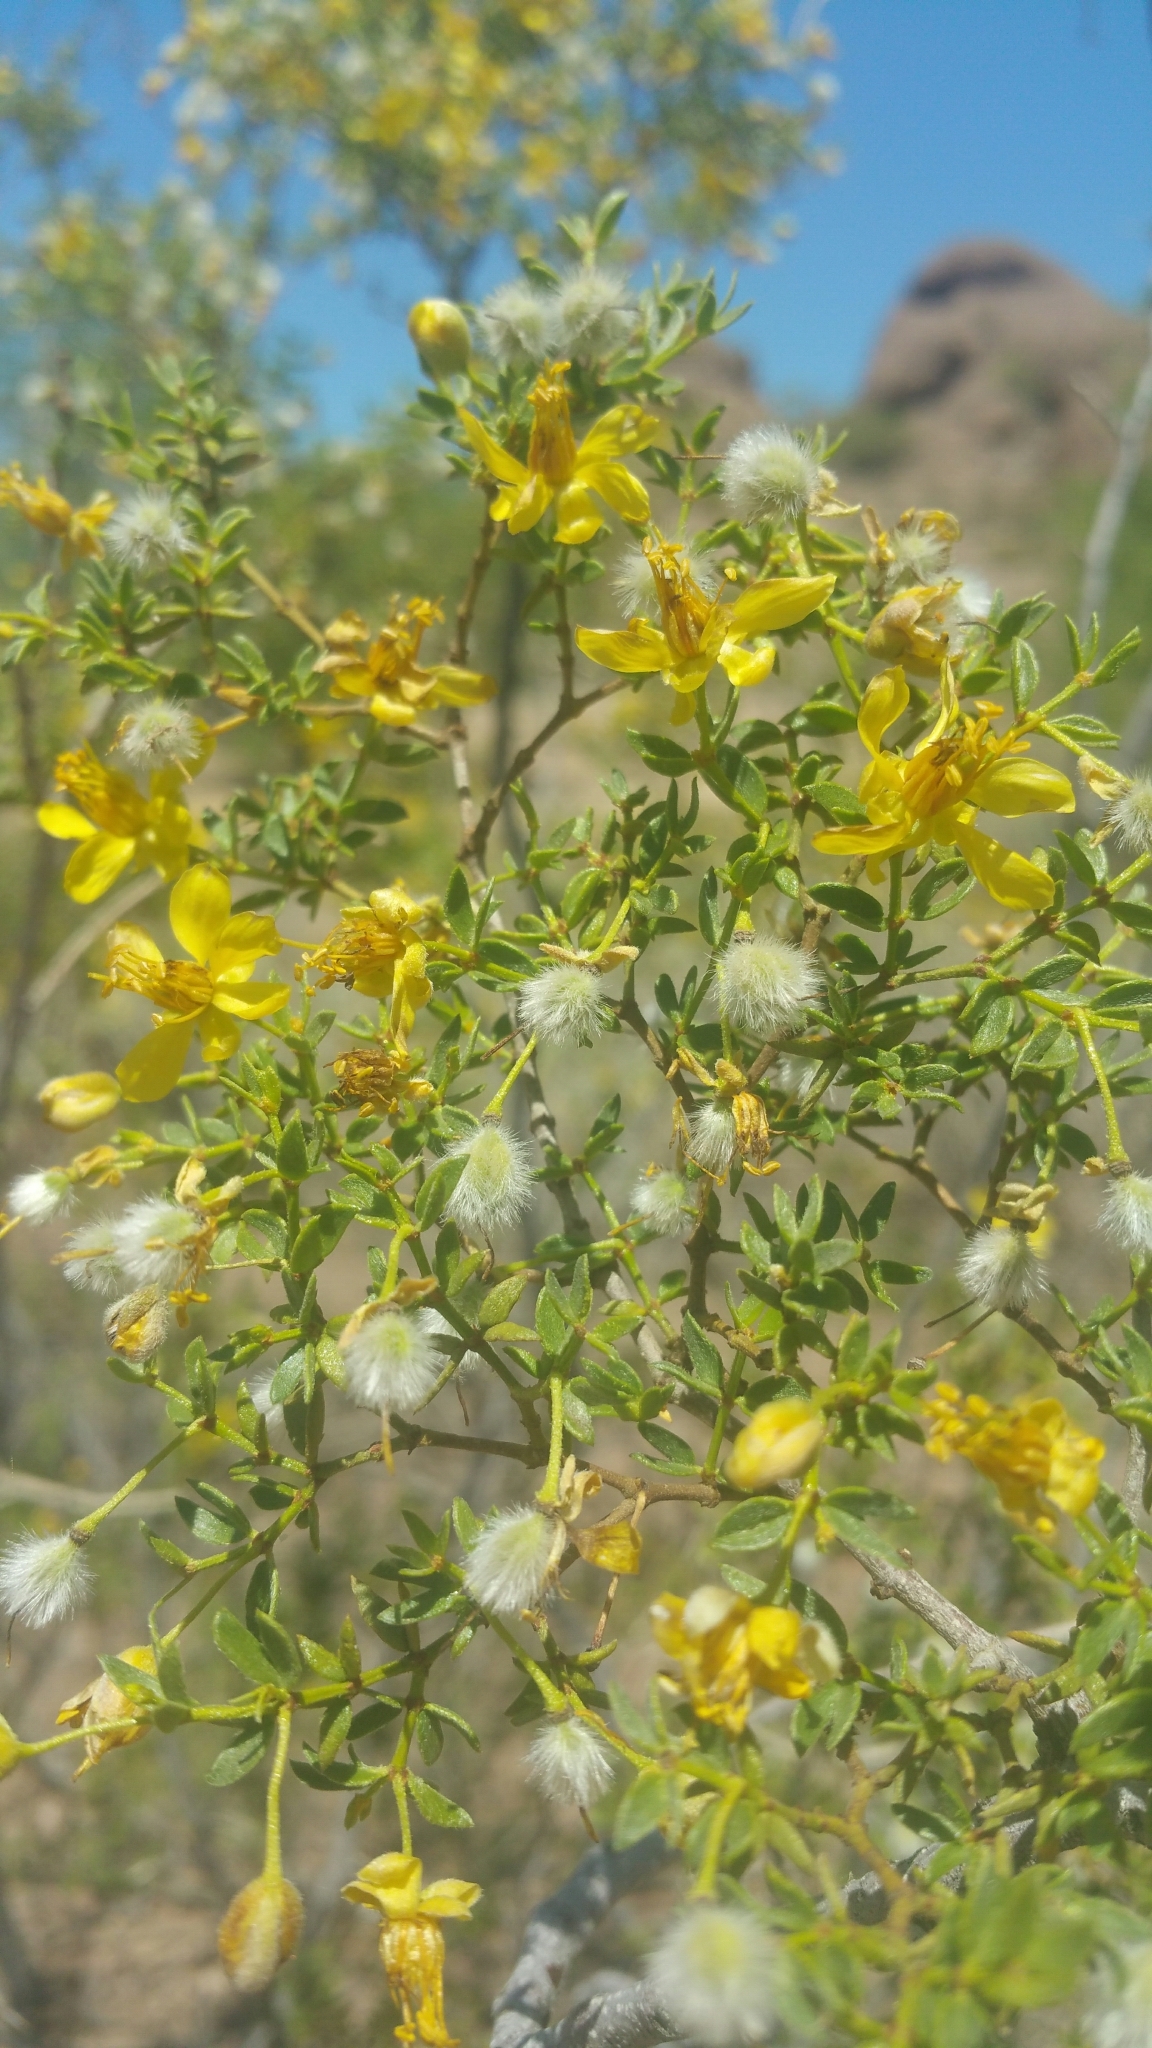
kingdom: Plantae
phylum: Tracheophyta
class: Magnoliopsida
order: Zygophyllales
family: Zygophyllaceae
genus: Larrea
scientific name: Larrea tridentata
